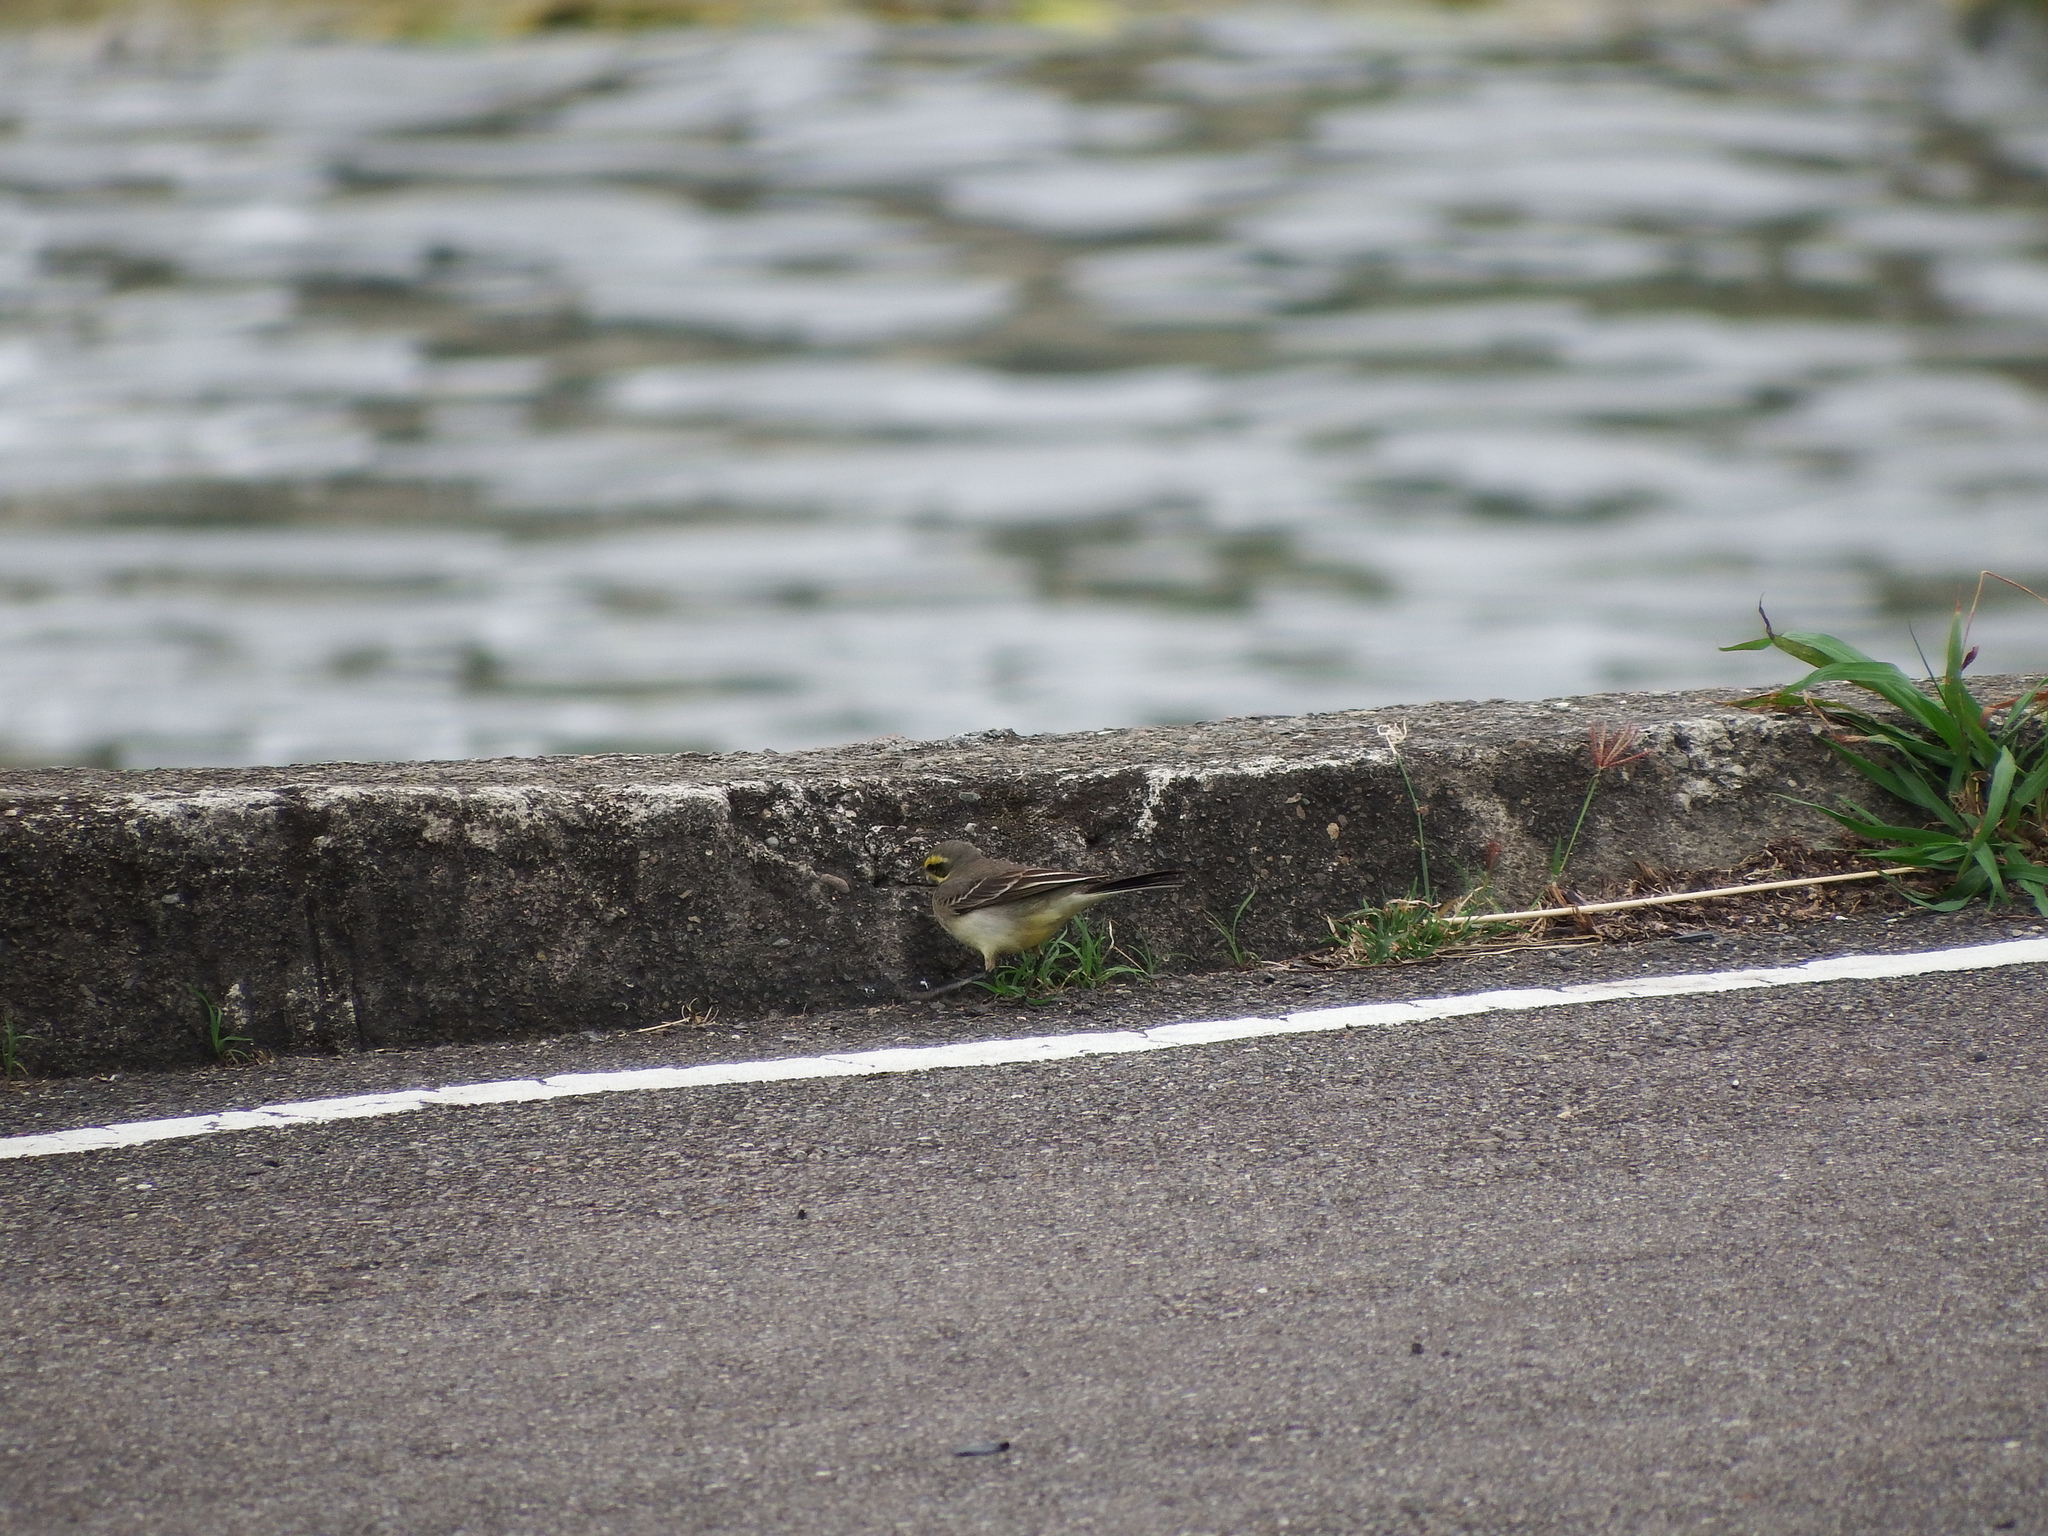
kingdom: Animalia
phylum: Chordata
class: Aves
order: Passeriformes
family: Motacillidae
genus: Motacilla
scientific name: Motacilla tschutschensis
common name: Eastern yellow wagtail
